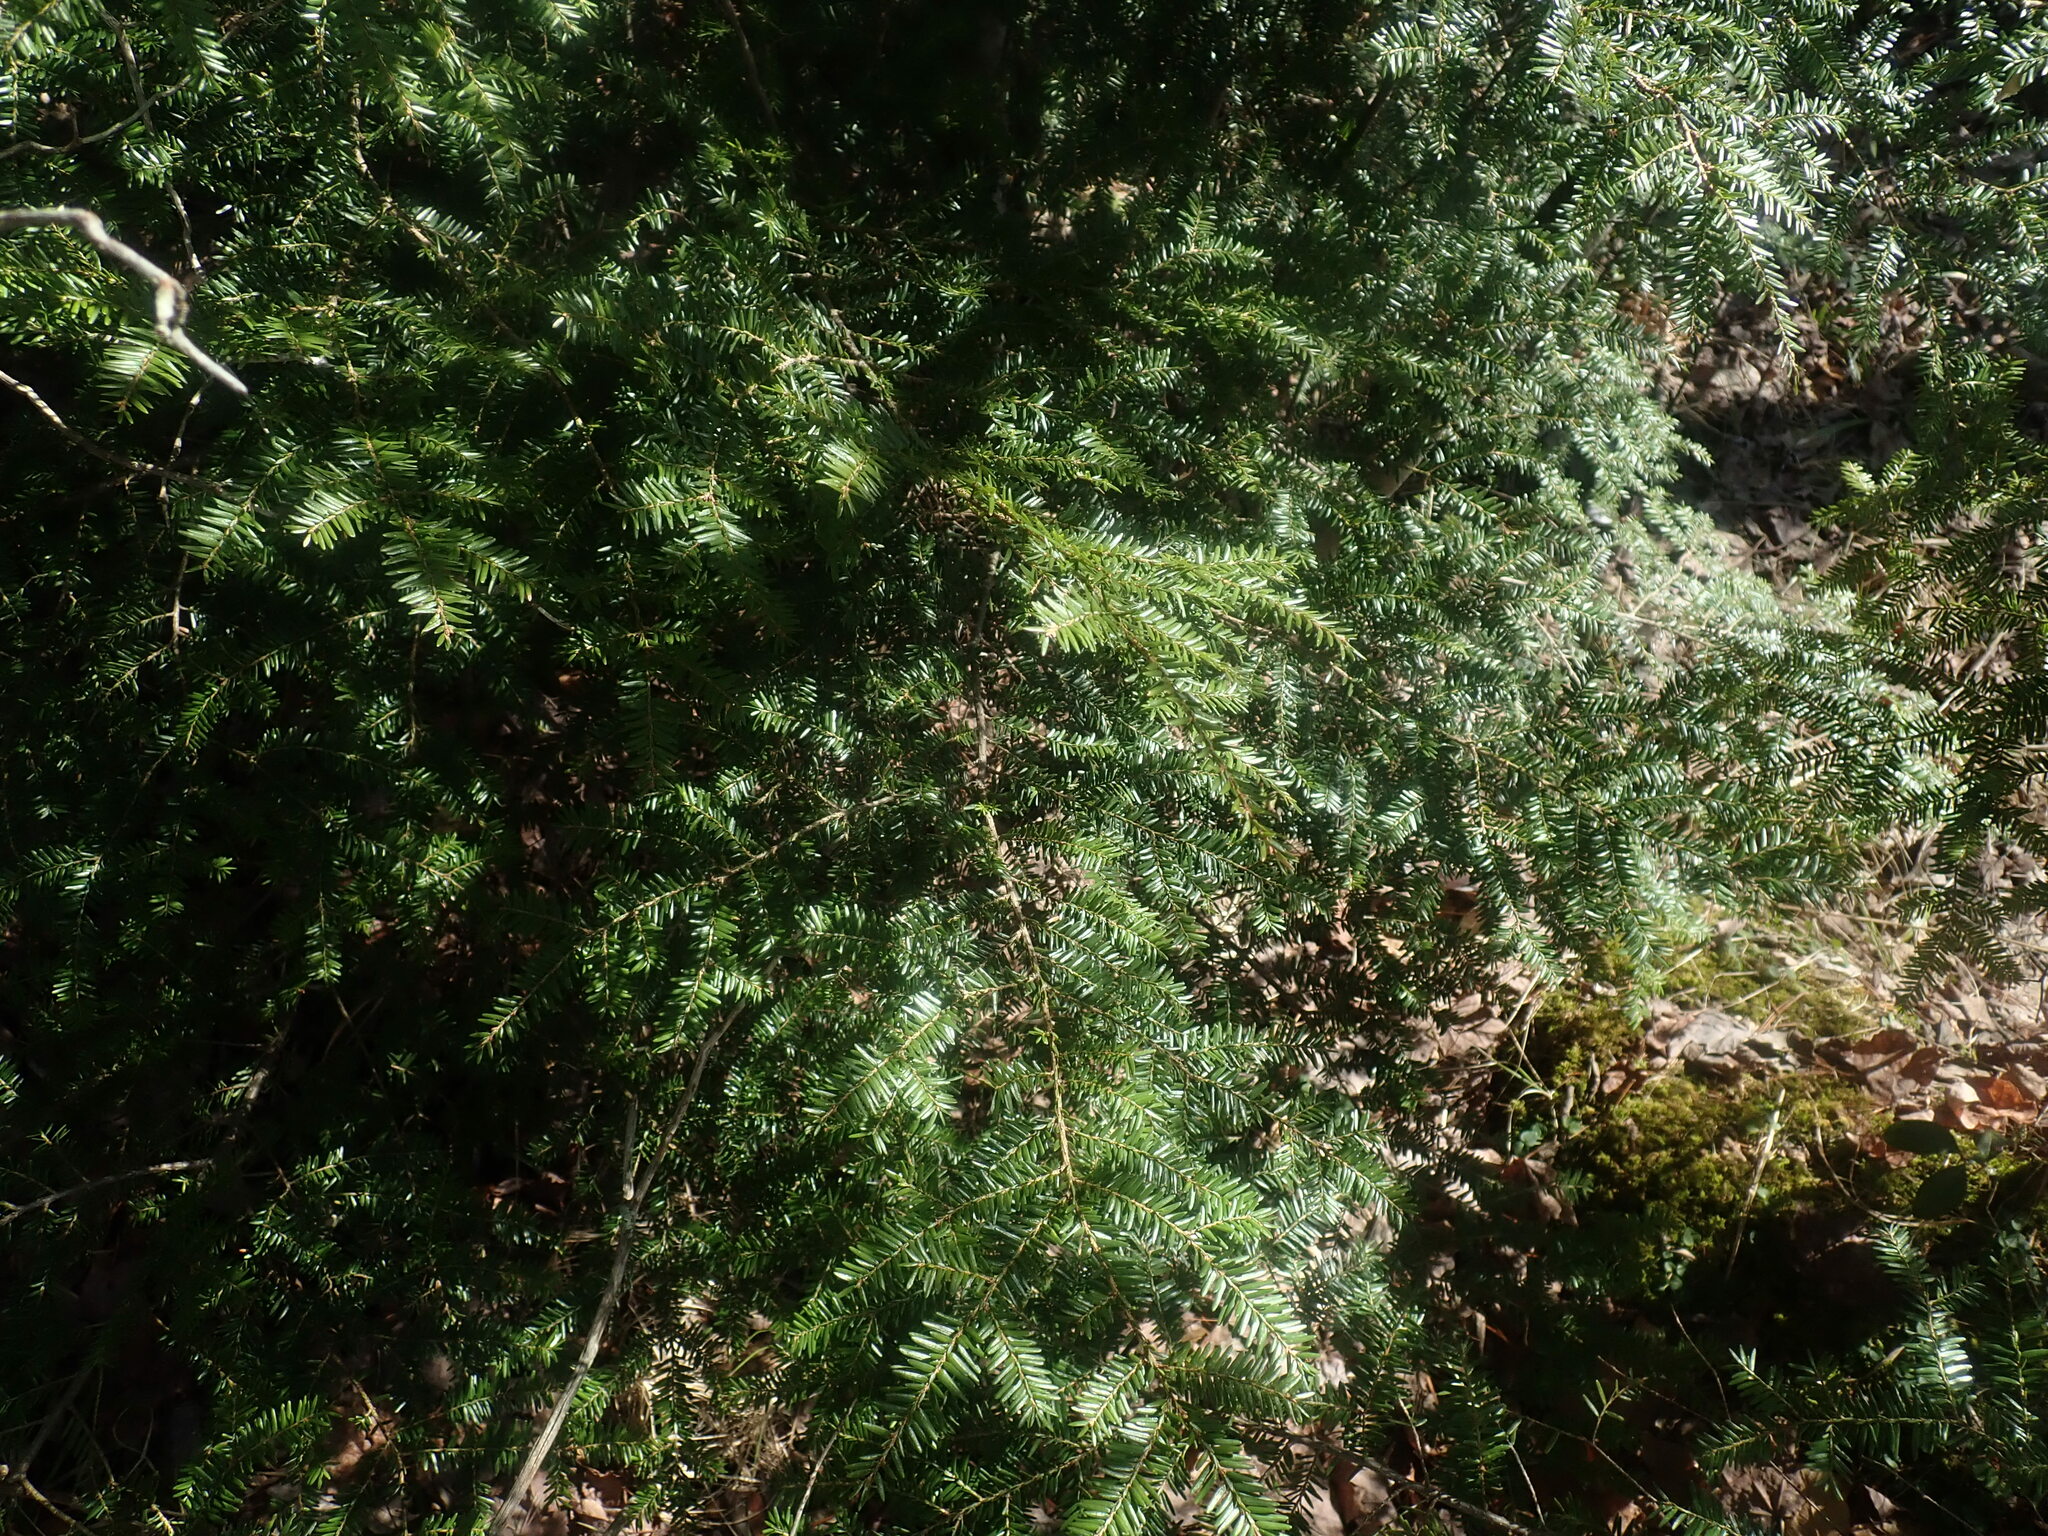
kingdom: Plantae
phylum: Tracheophyta
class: Pinopsida
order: Pinales
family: Pinaceae
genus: Tsuga
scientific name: Tsuga canadensis
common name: Eastern hemlock
